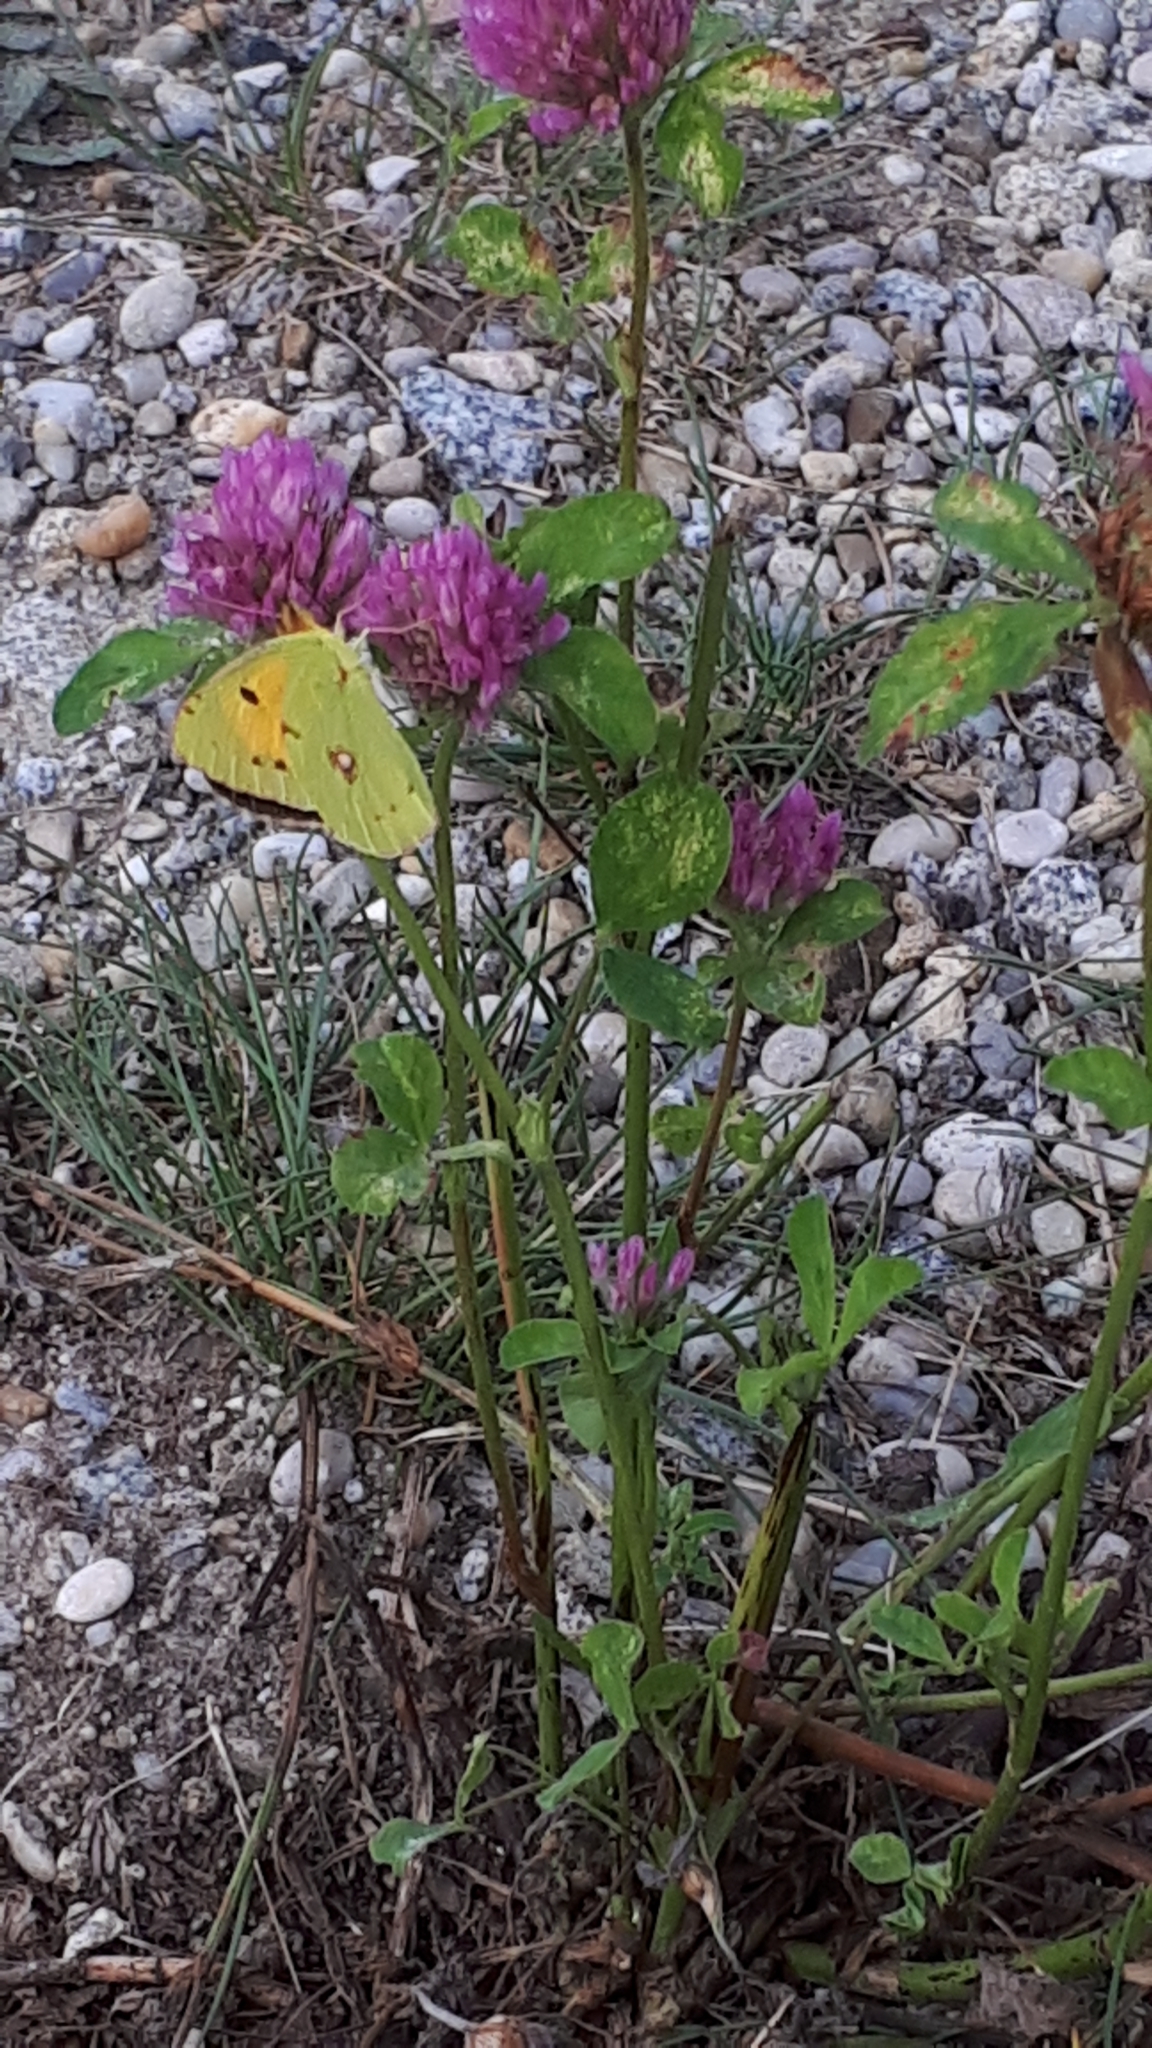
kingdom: Animalia
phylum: Arthropoda
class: Insecta
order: Lepidoptera
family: Pieridae
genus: Colias
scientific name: Colias croceus
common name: Clouded yellow
